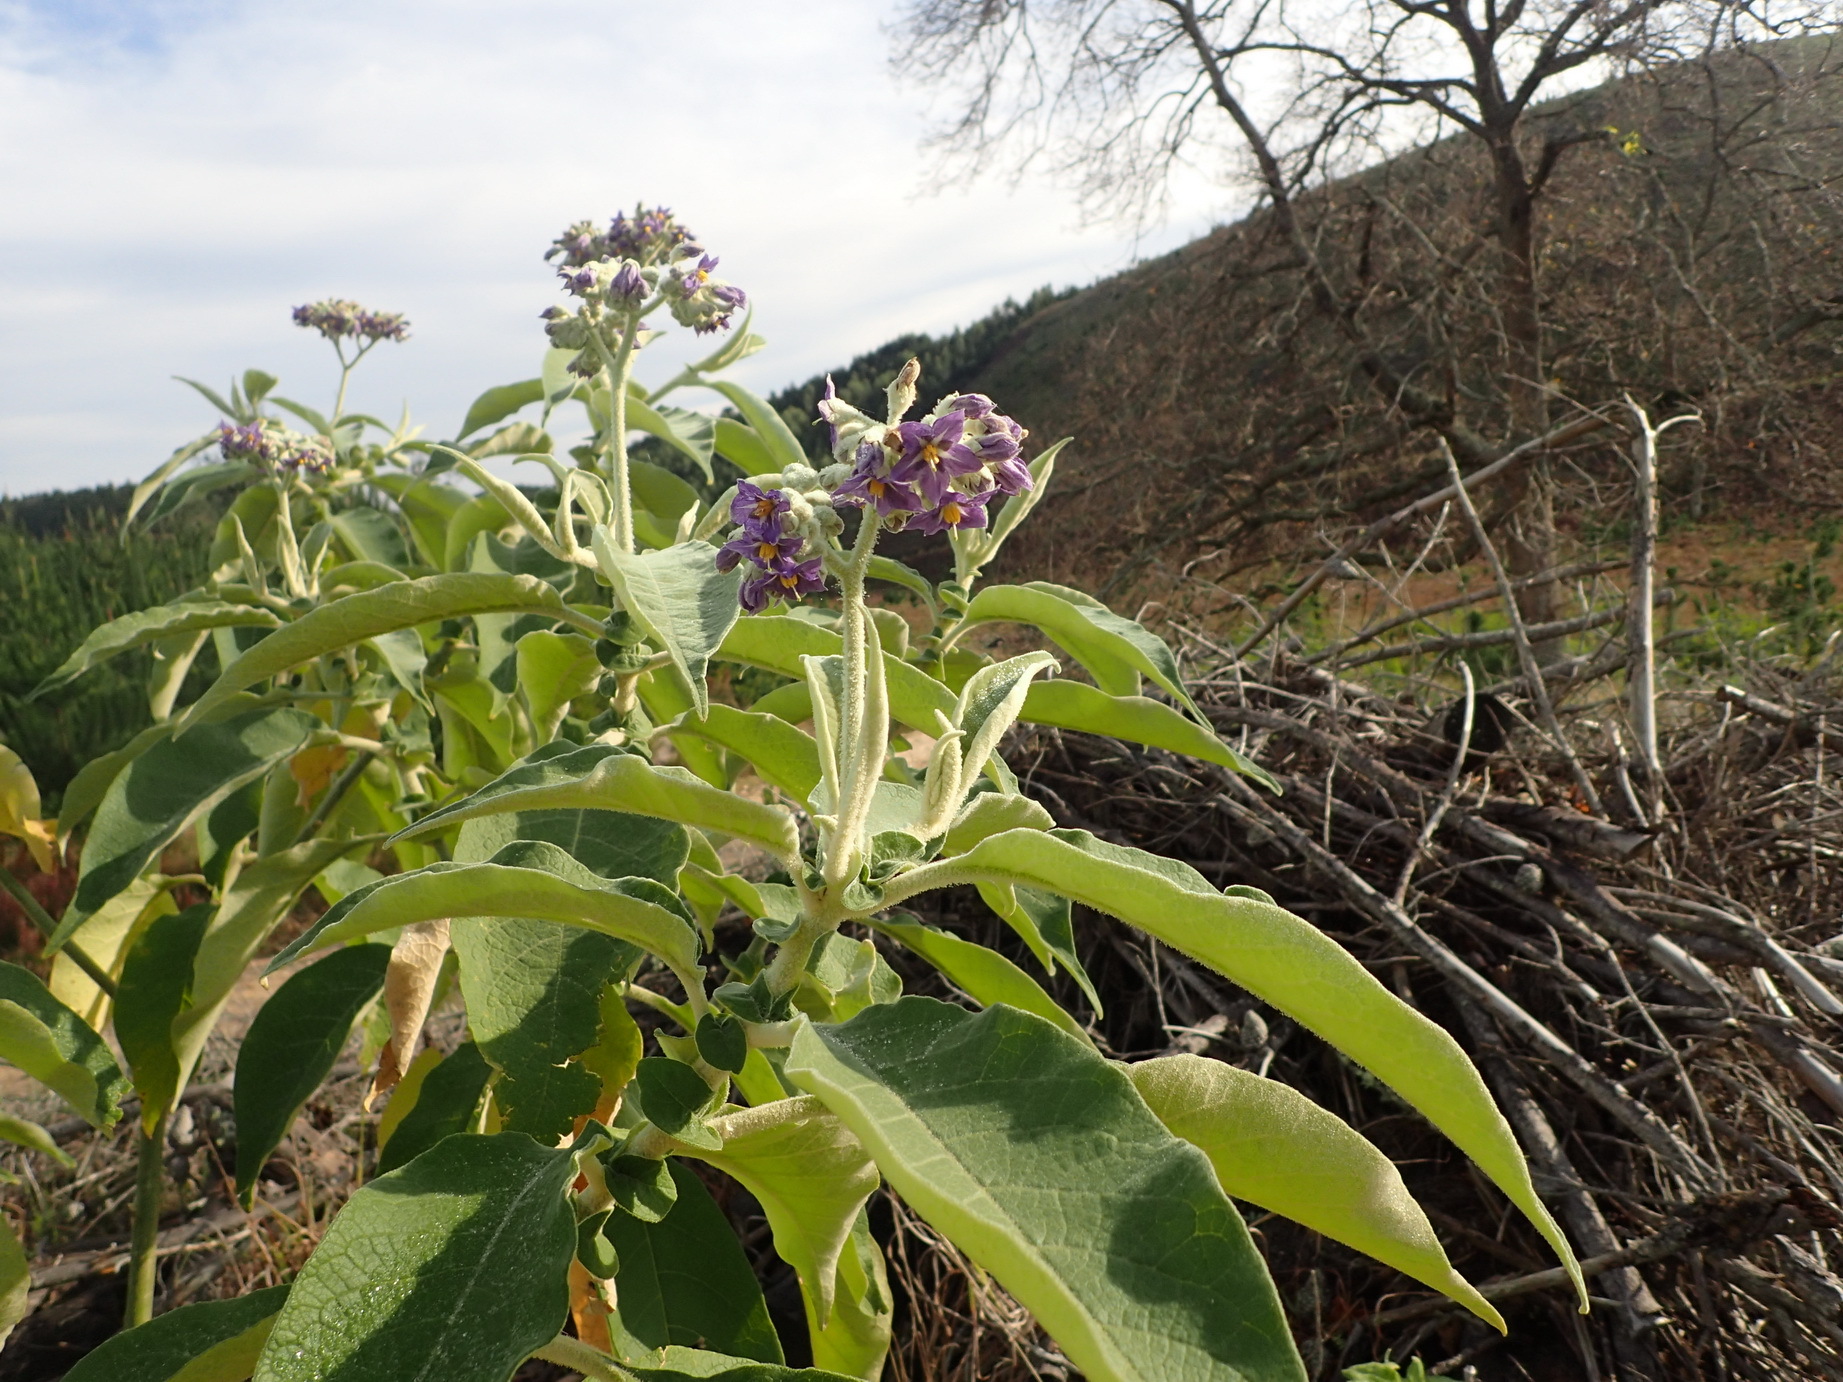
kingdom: Plantae
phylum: Tracheophyta
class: Magnoliopsida
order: Solanales
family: Solanaceae
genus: Solanum
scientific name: Solanum mauritianum
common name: Earleaf nightshade
